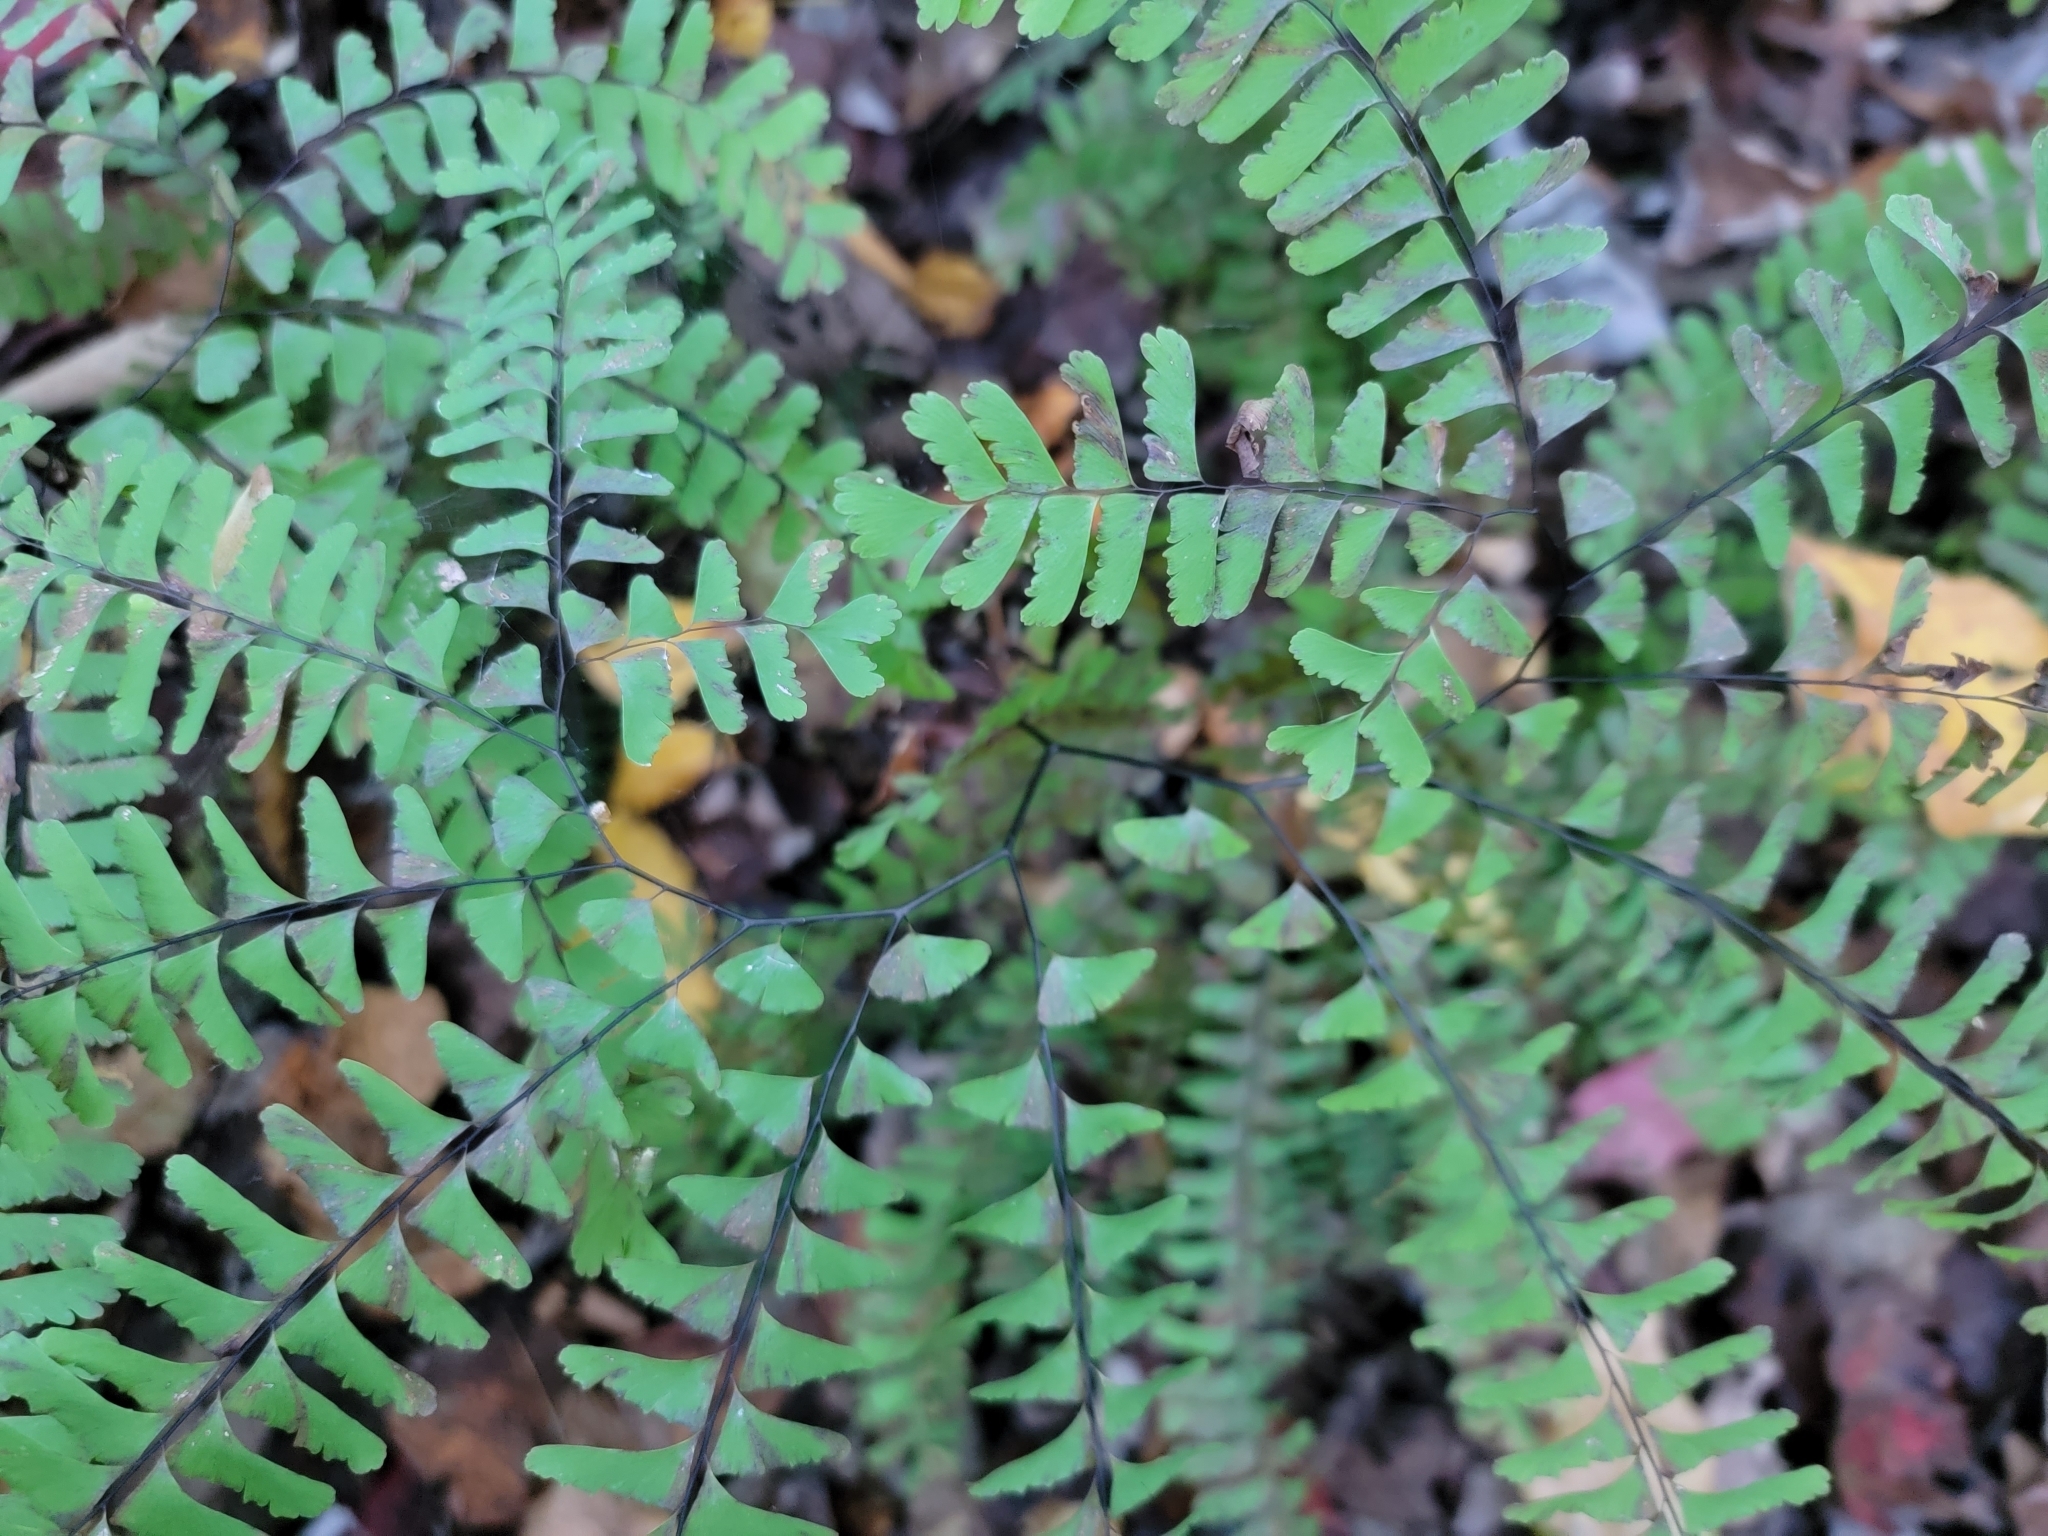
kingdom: Plantae
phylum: Tracheophyta
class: Polypodiopsida
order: Polypodiales
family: Pteridaceae
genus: Adiantum
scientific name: Adiantum pedatum
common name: Five-finger fern
